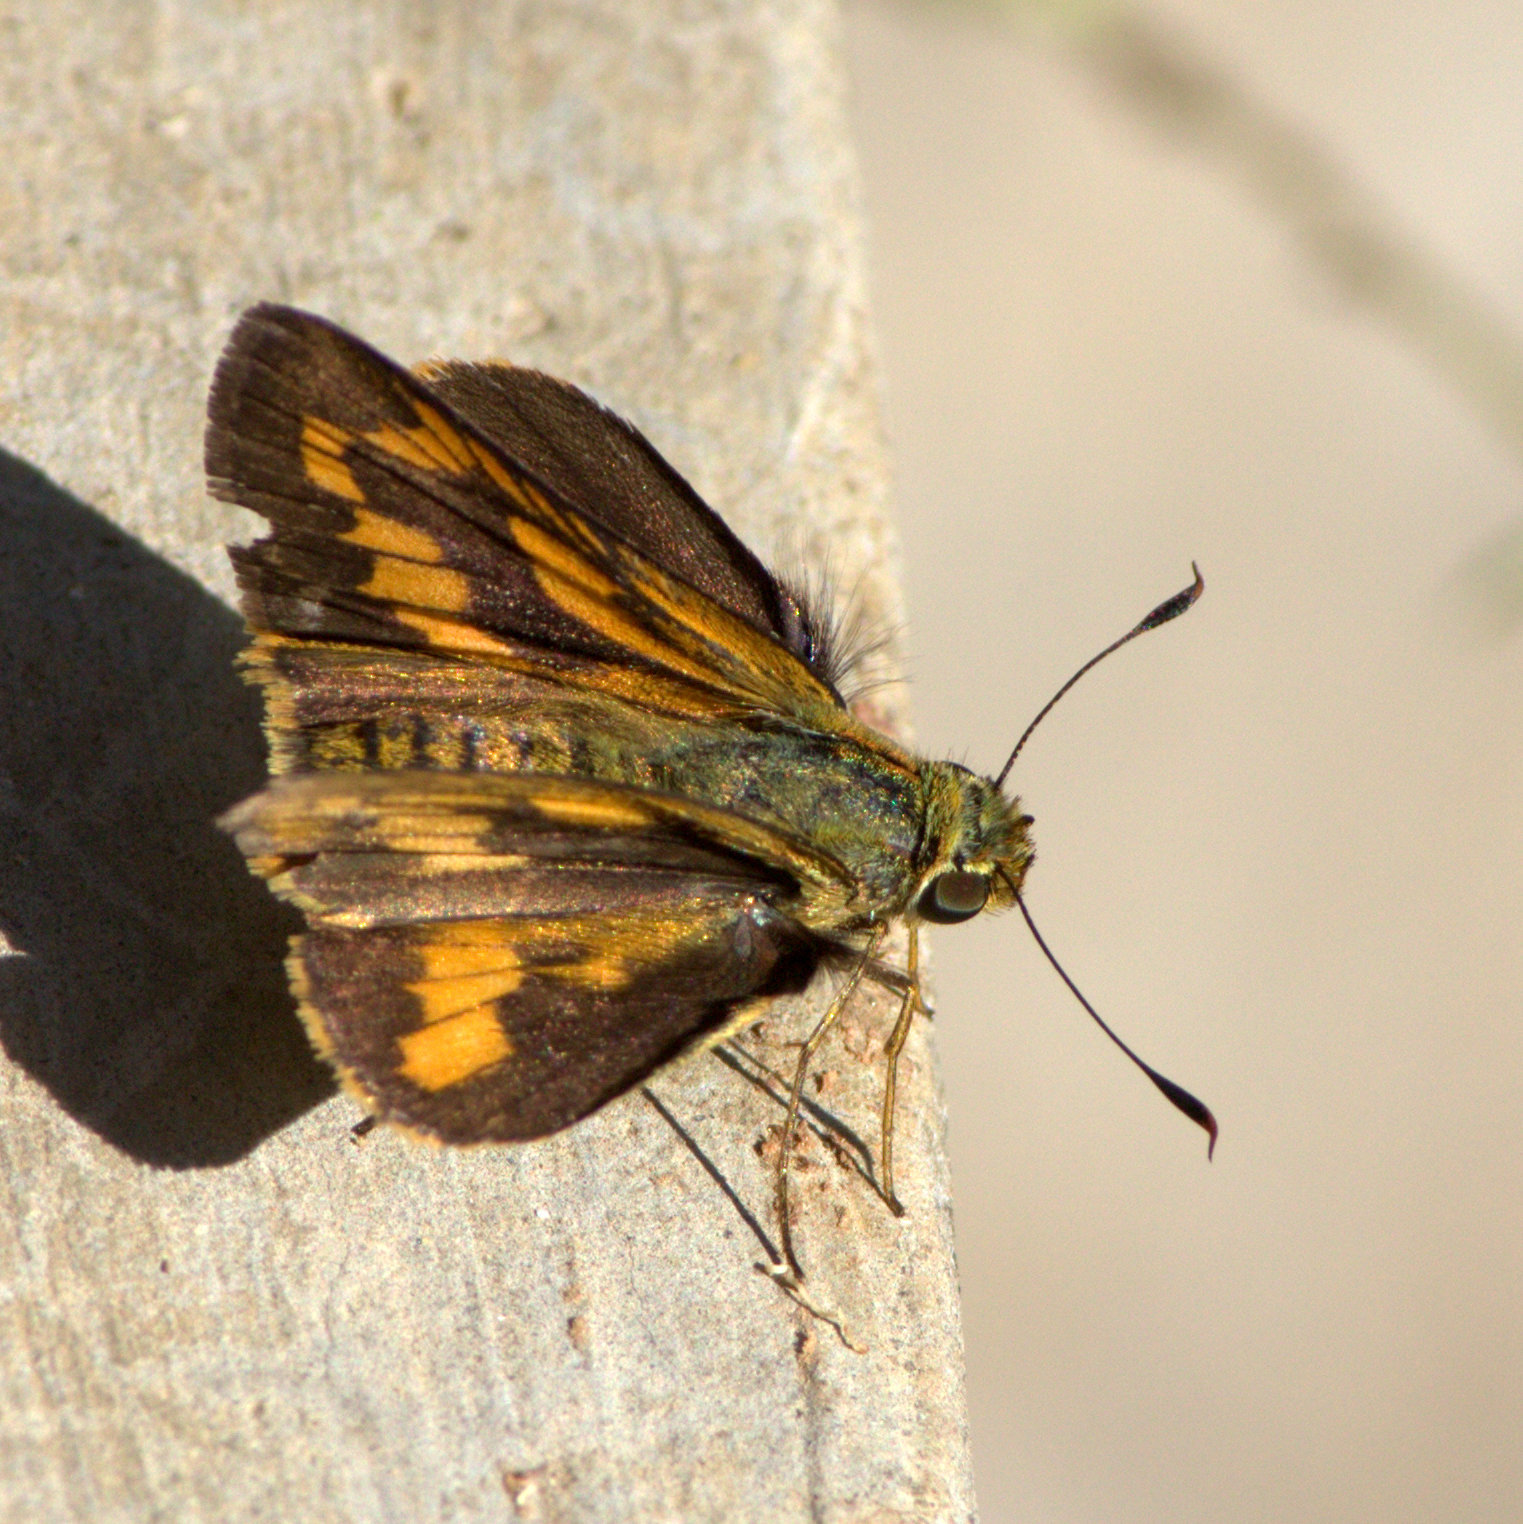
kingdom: Animalia
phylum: Arthropoda
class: Insecta
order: Lepidoptera
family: Hesperiidae
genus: Telicota
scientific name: Telicota bambusae
